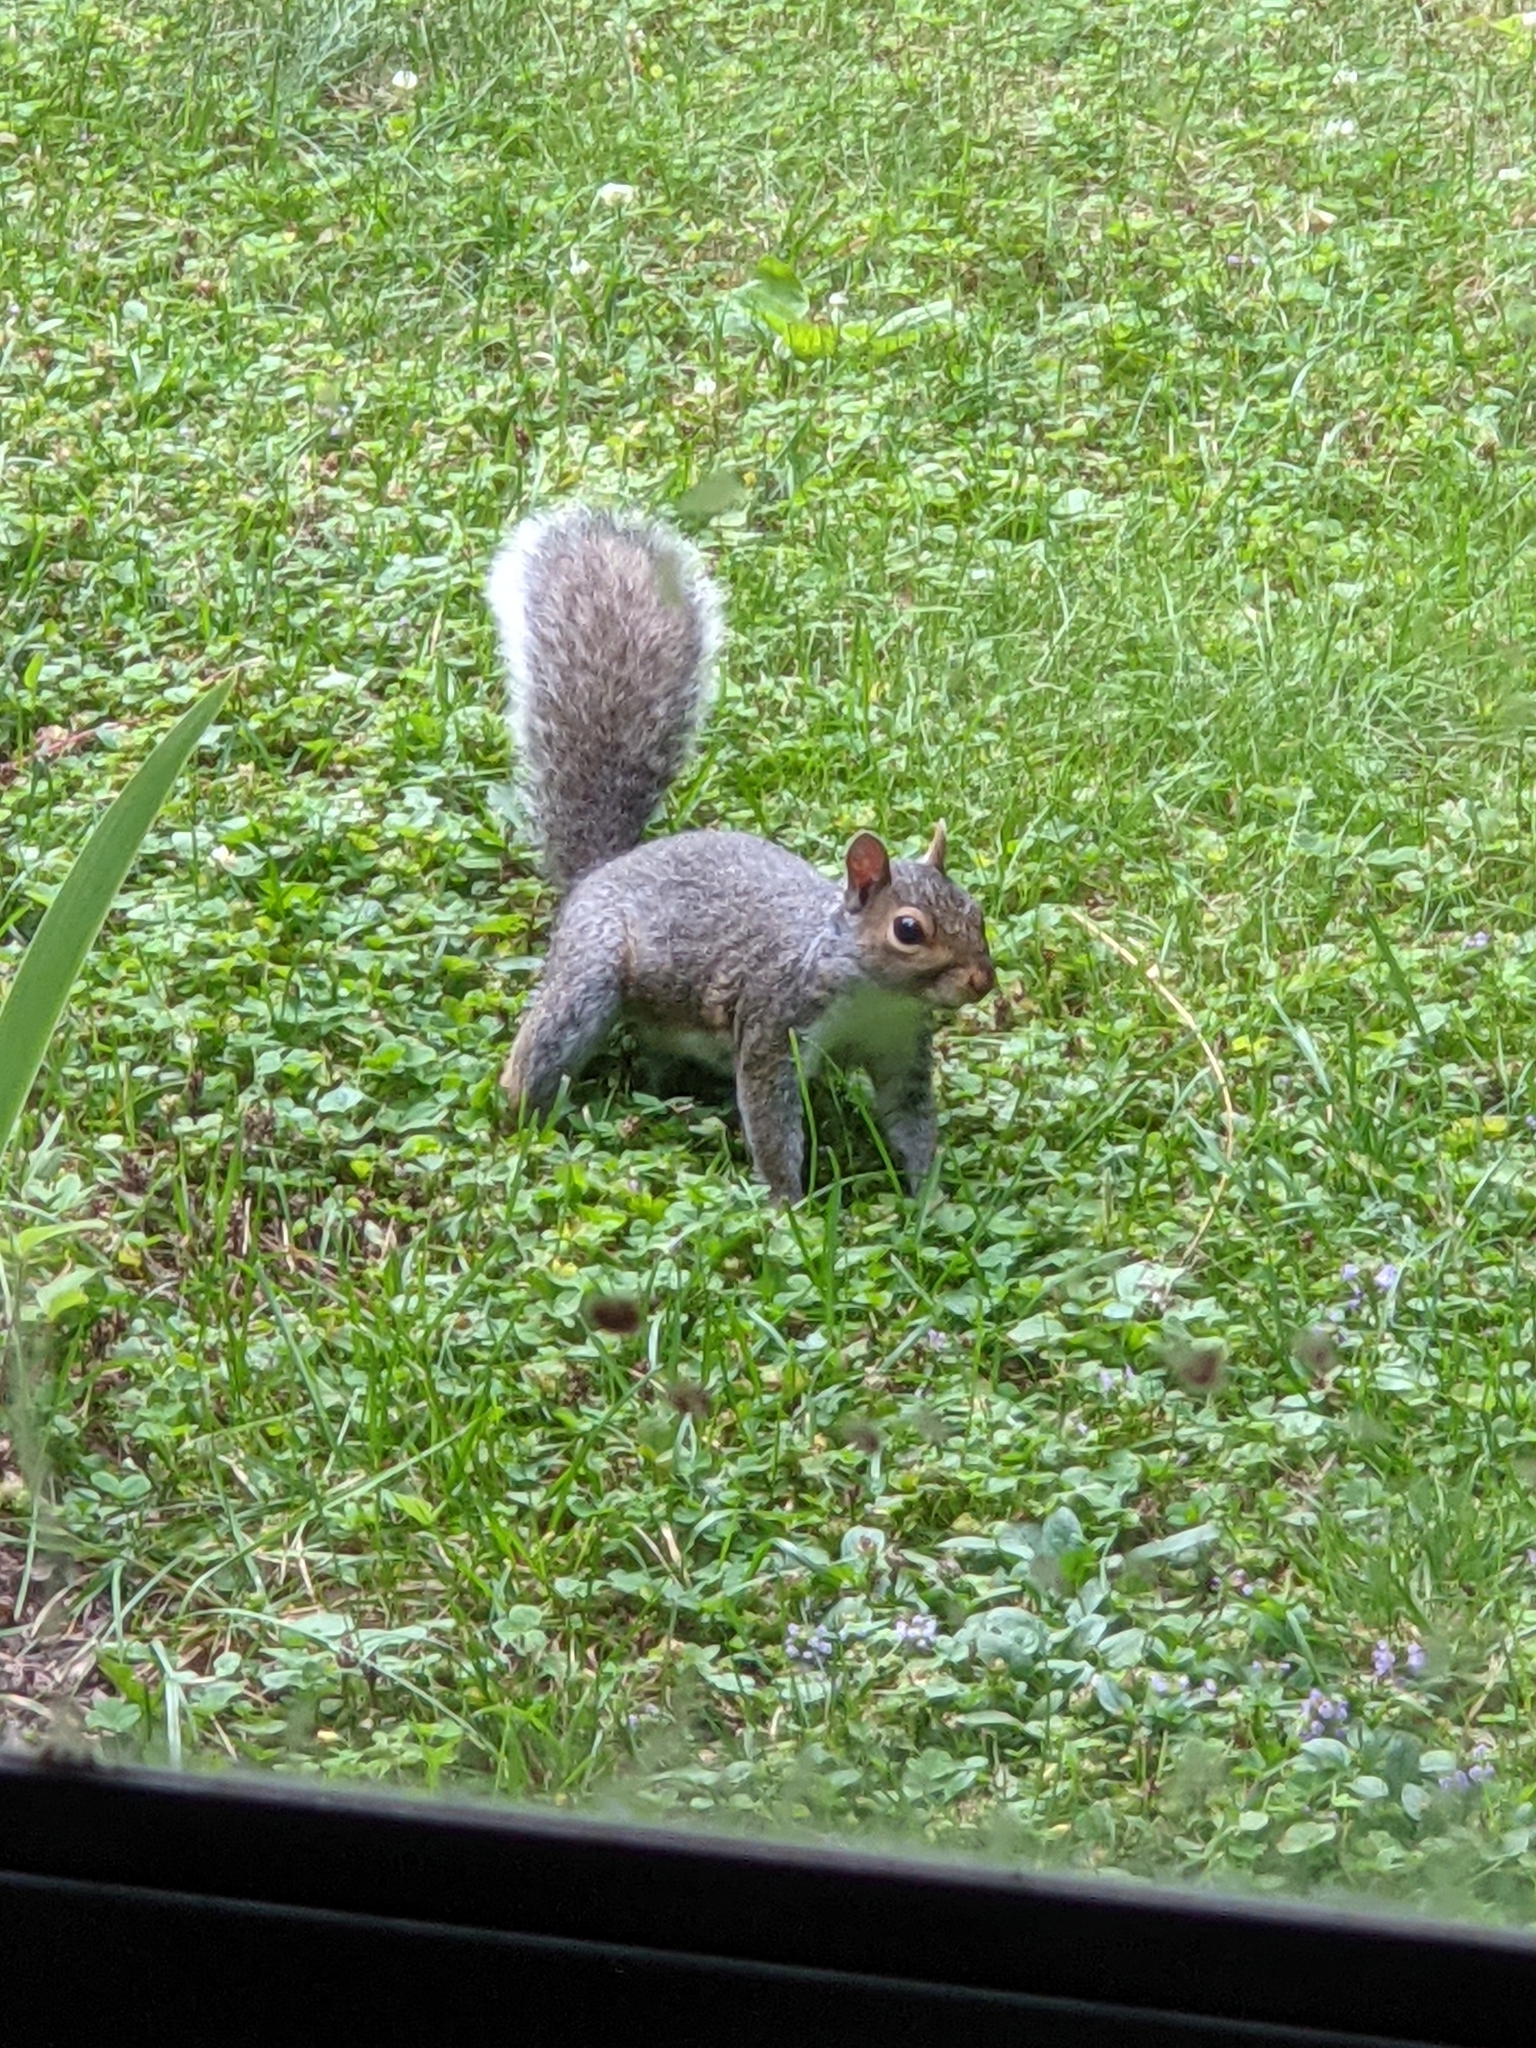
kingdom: Animalia
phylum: Chordata
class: Mammalia
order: Rodentia
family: Sciuridae
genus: Sciurus
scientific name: Sciurus carolinensis
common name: Eastern gray squirrel
